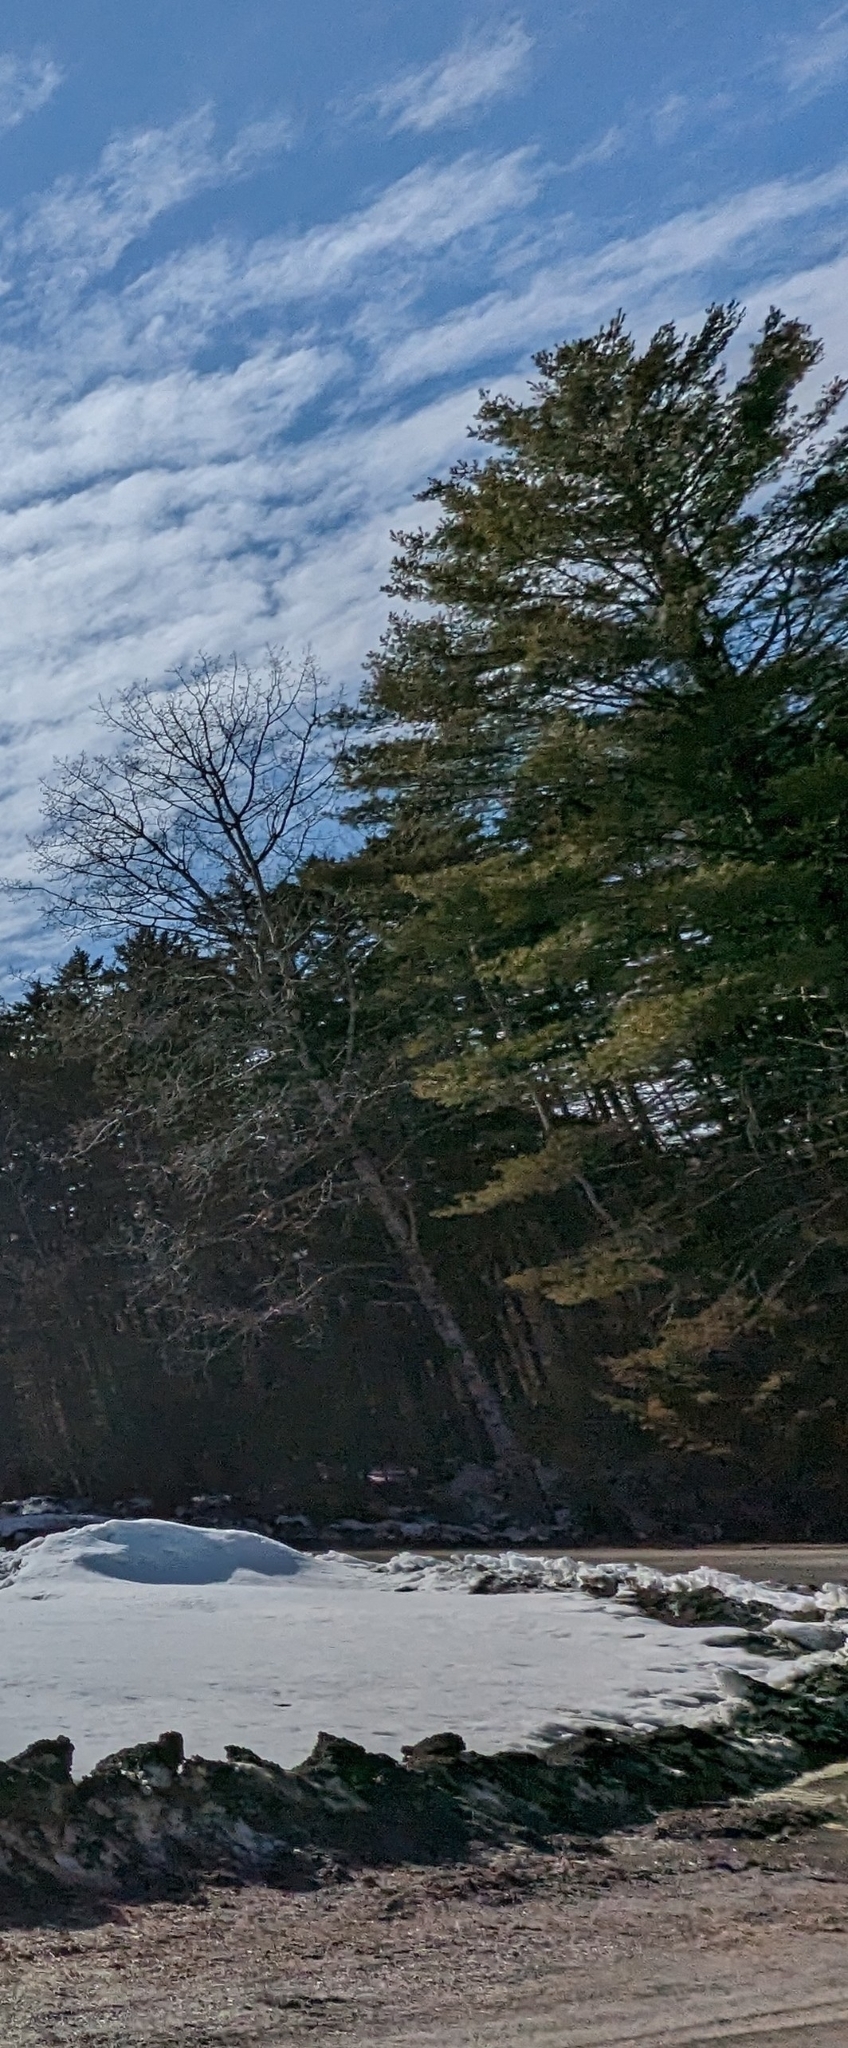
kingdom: Plantae
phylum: Tracheophyta
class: Pinopsida
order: Pinales
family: Pinaceae
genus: Pinus
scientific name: Pinus strobus
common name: Weymouth pine
